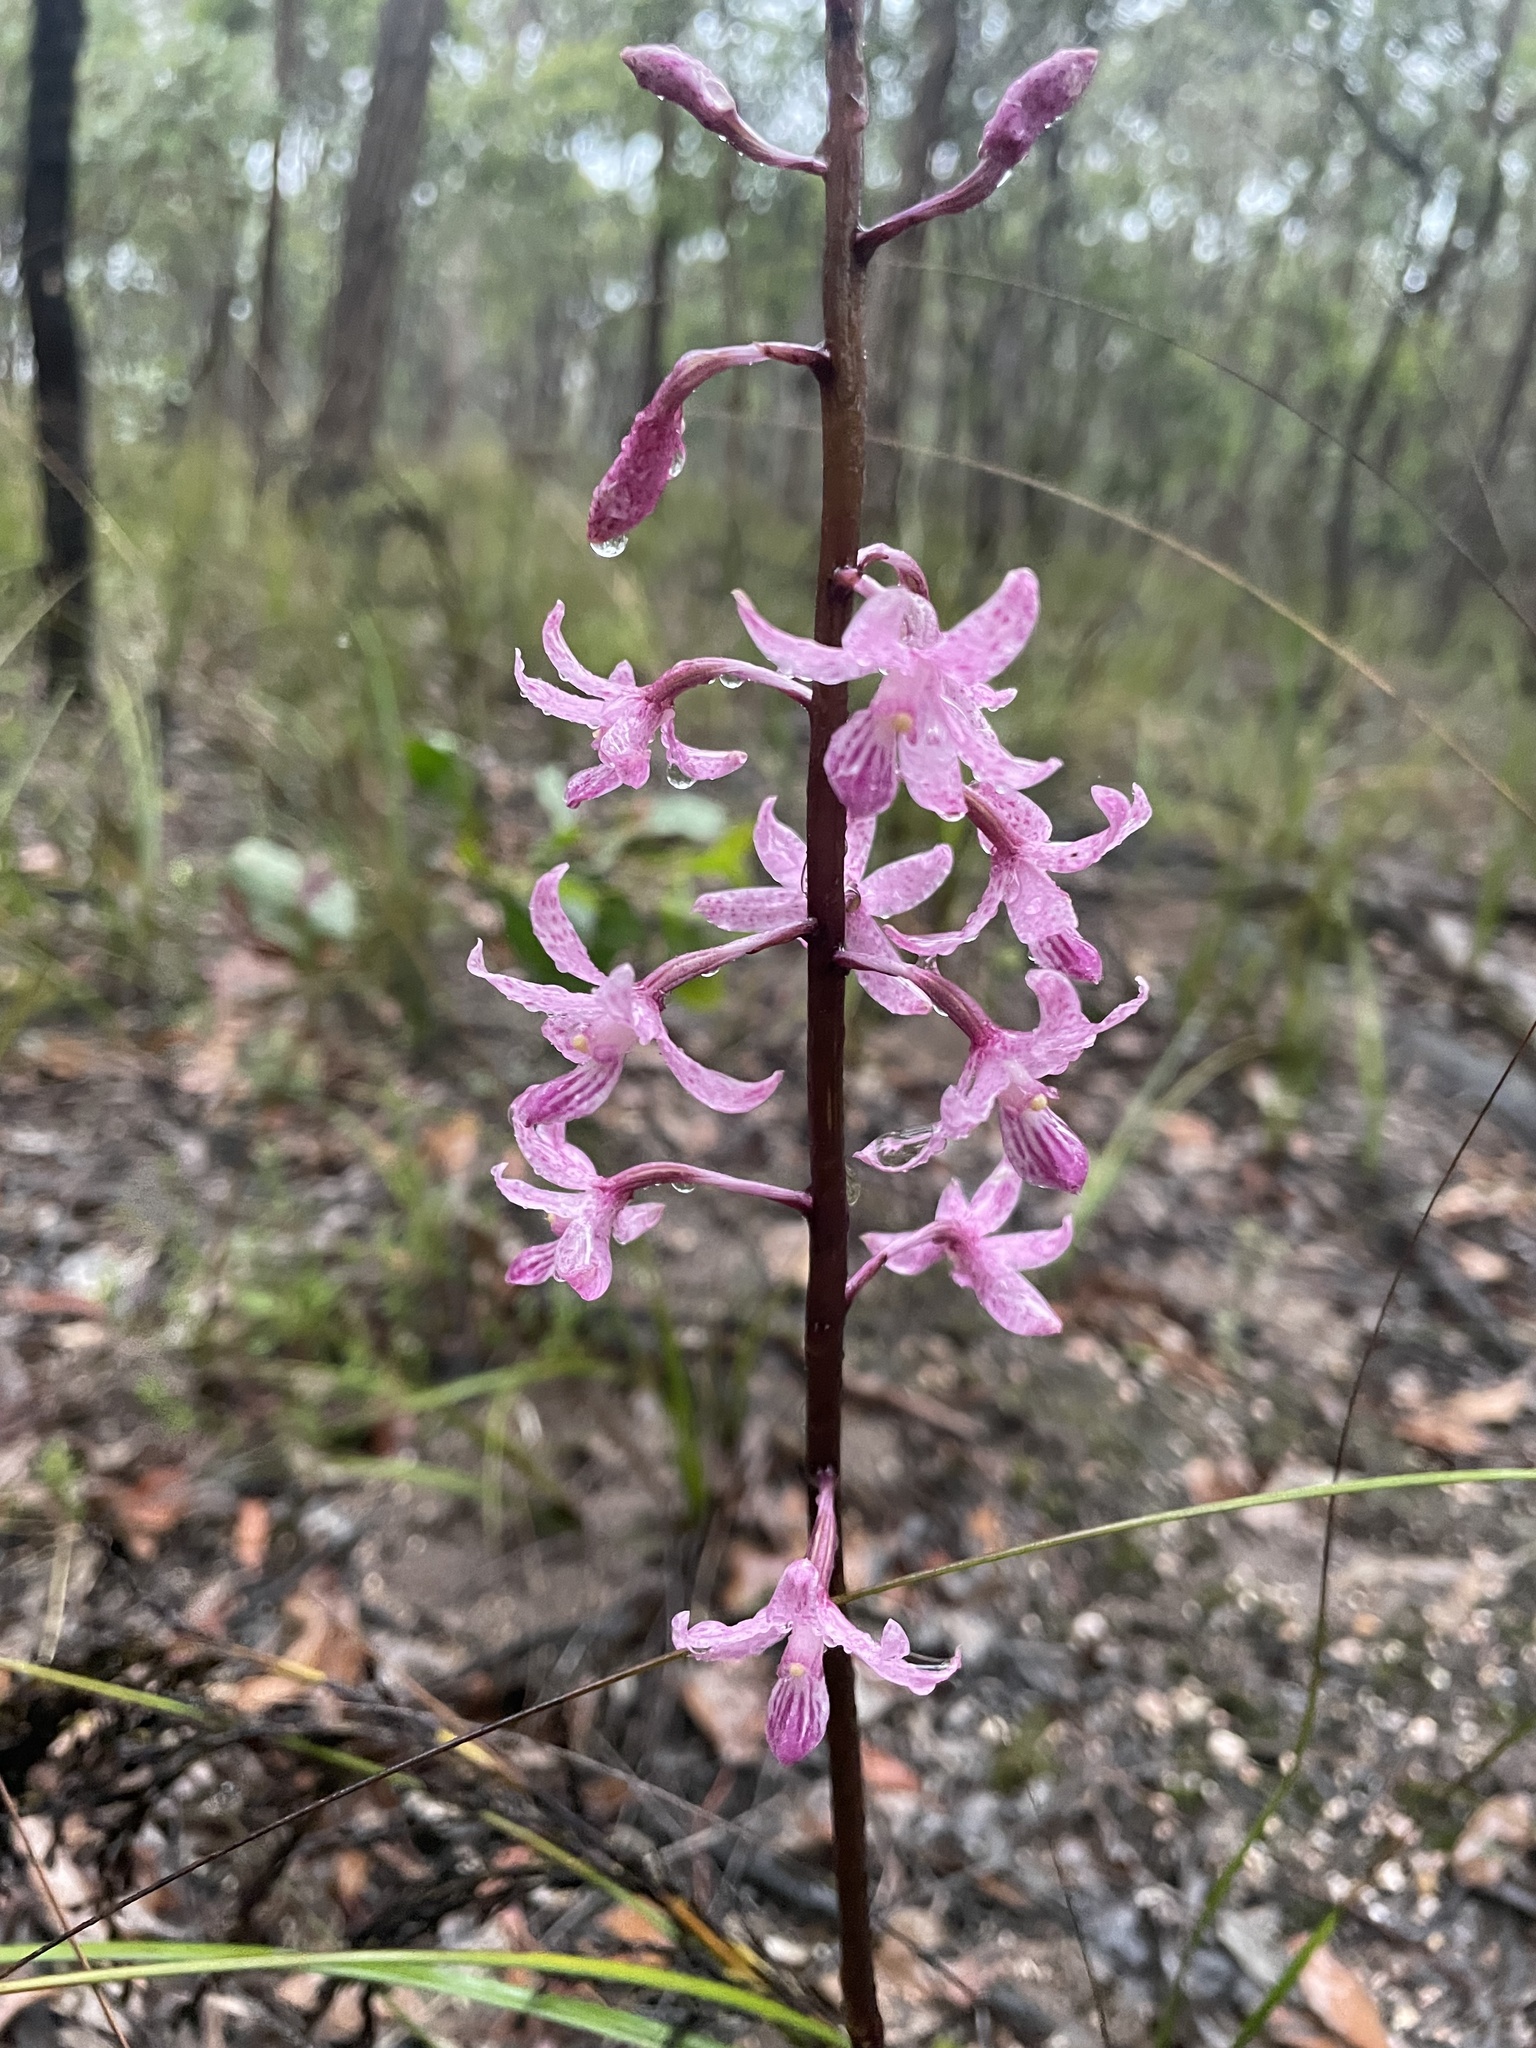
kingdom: Plantae
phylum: Tracheophyta
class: Liliopsida
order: Asparagales
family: Orchidaceae
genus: Dipodium
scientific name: Dipodium roseum
